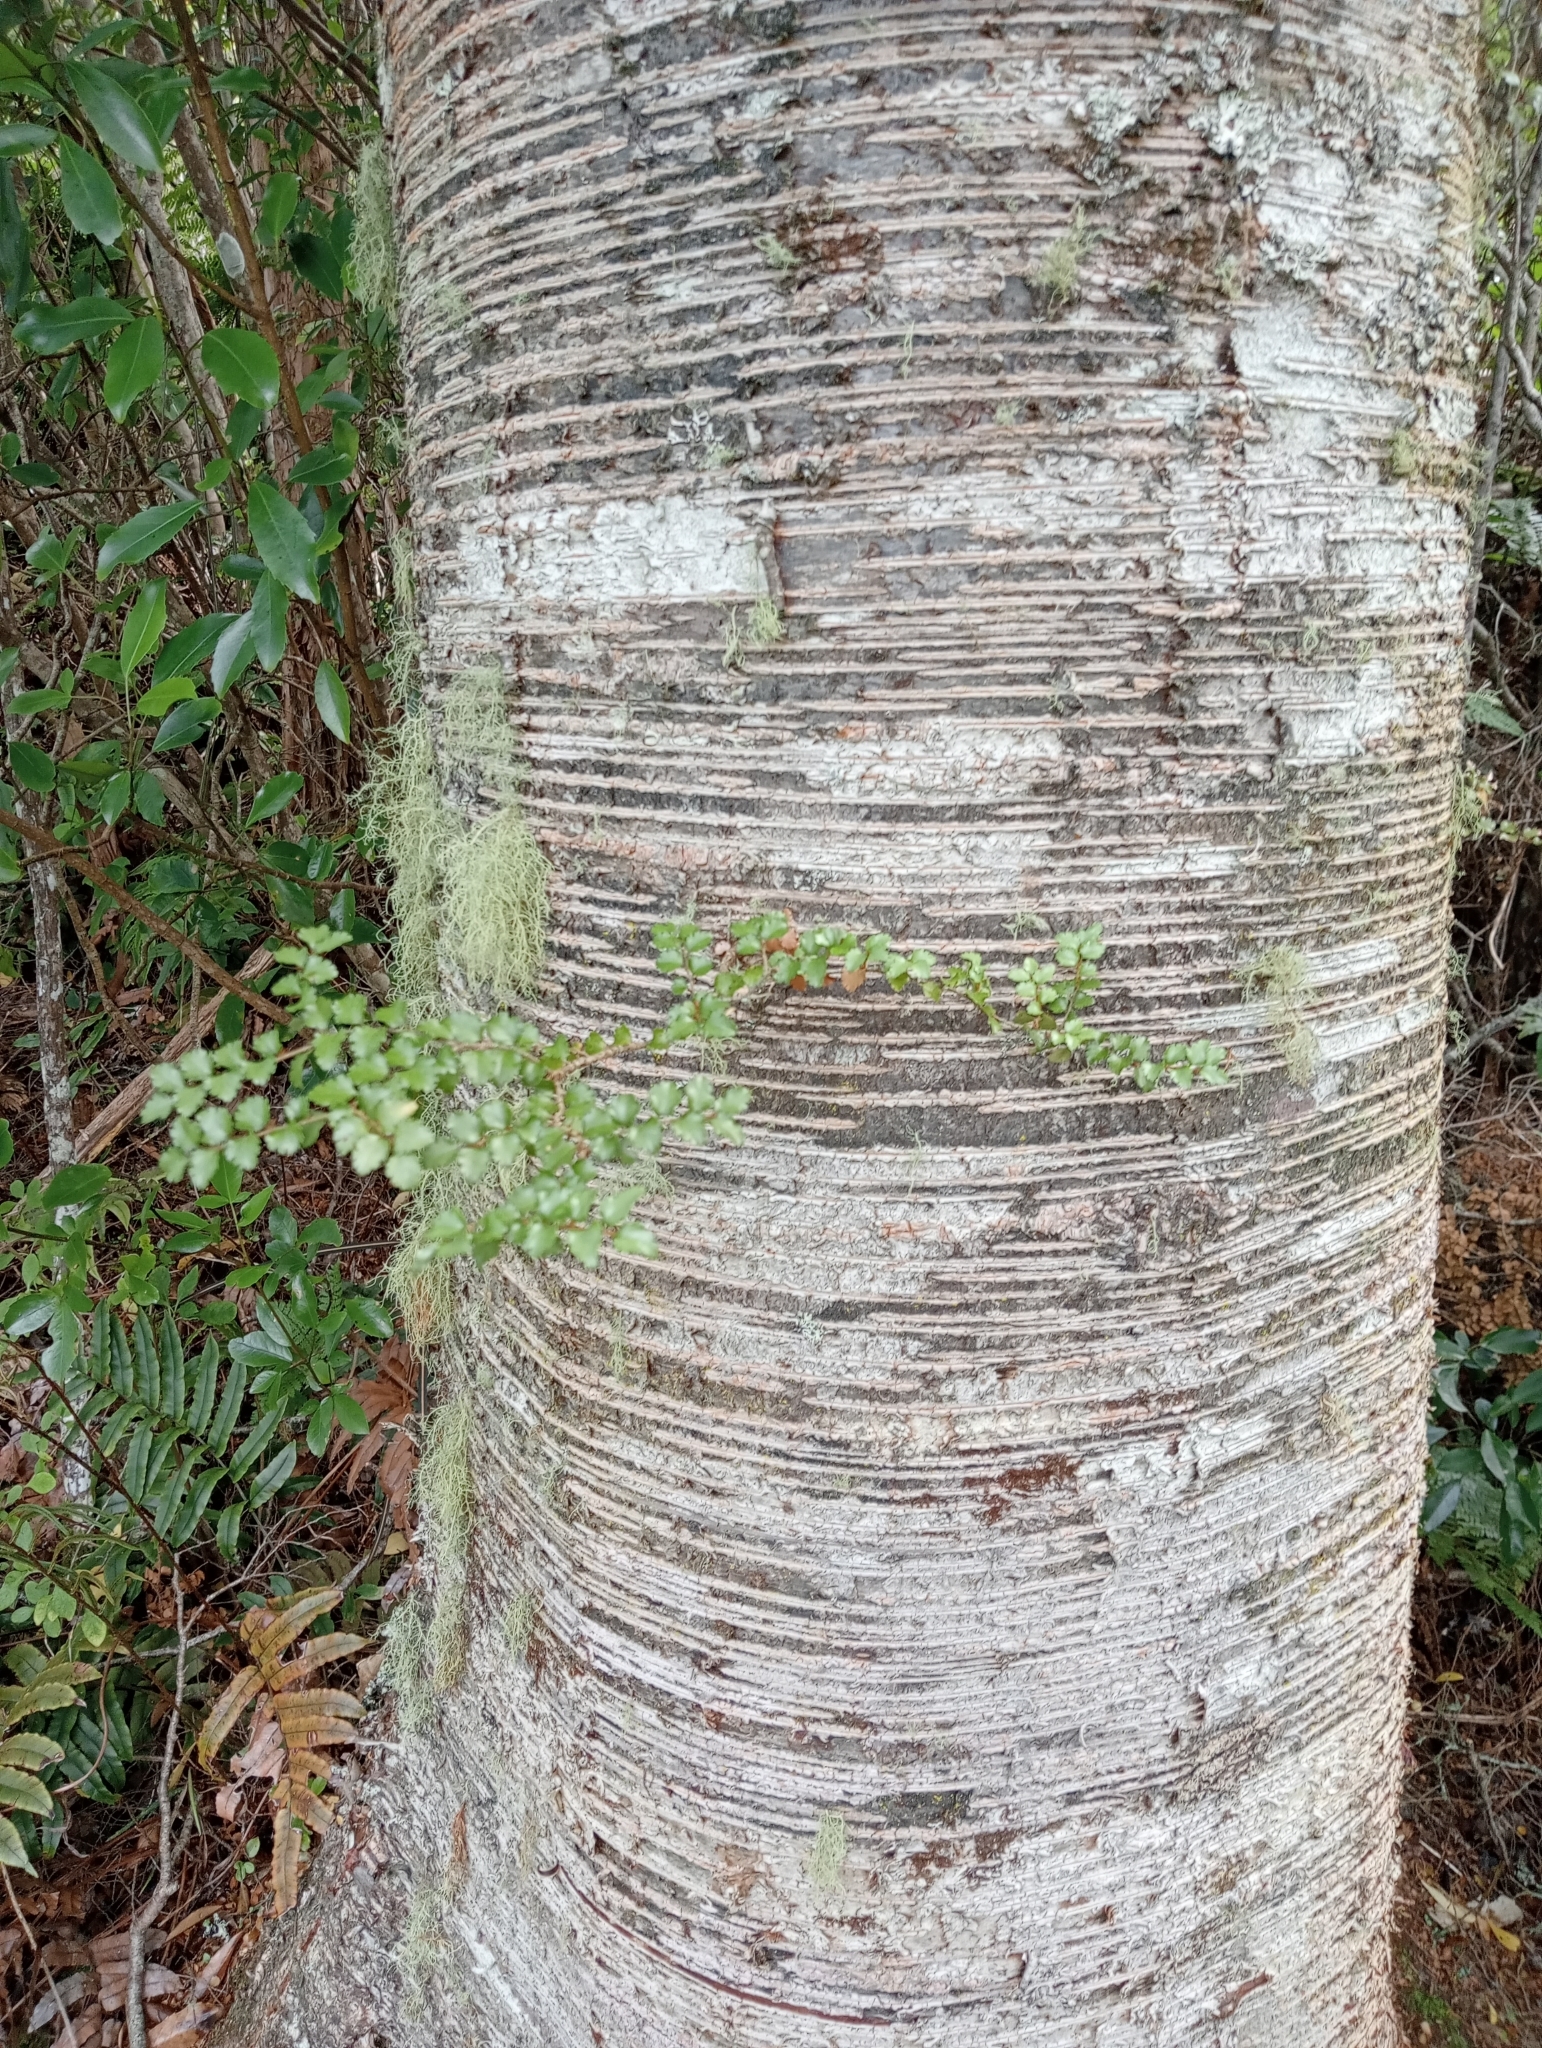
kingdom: Plantae
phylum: Tracheophyta
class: Magnoliopsida
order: Fagales
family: Nothofagaceae
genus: Nothofagus
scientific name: Nothofagus menziesii
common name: Silver beech
